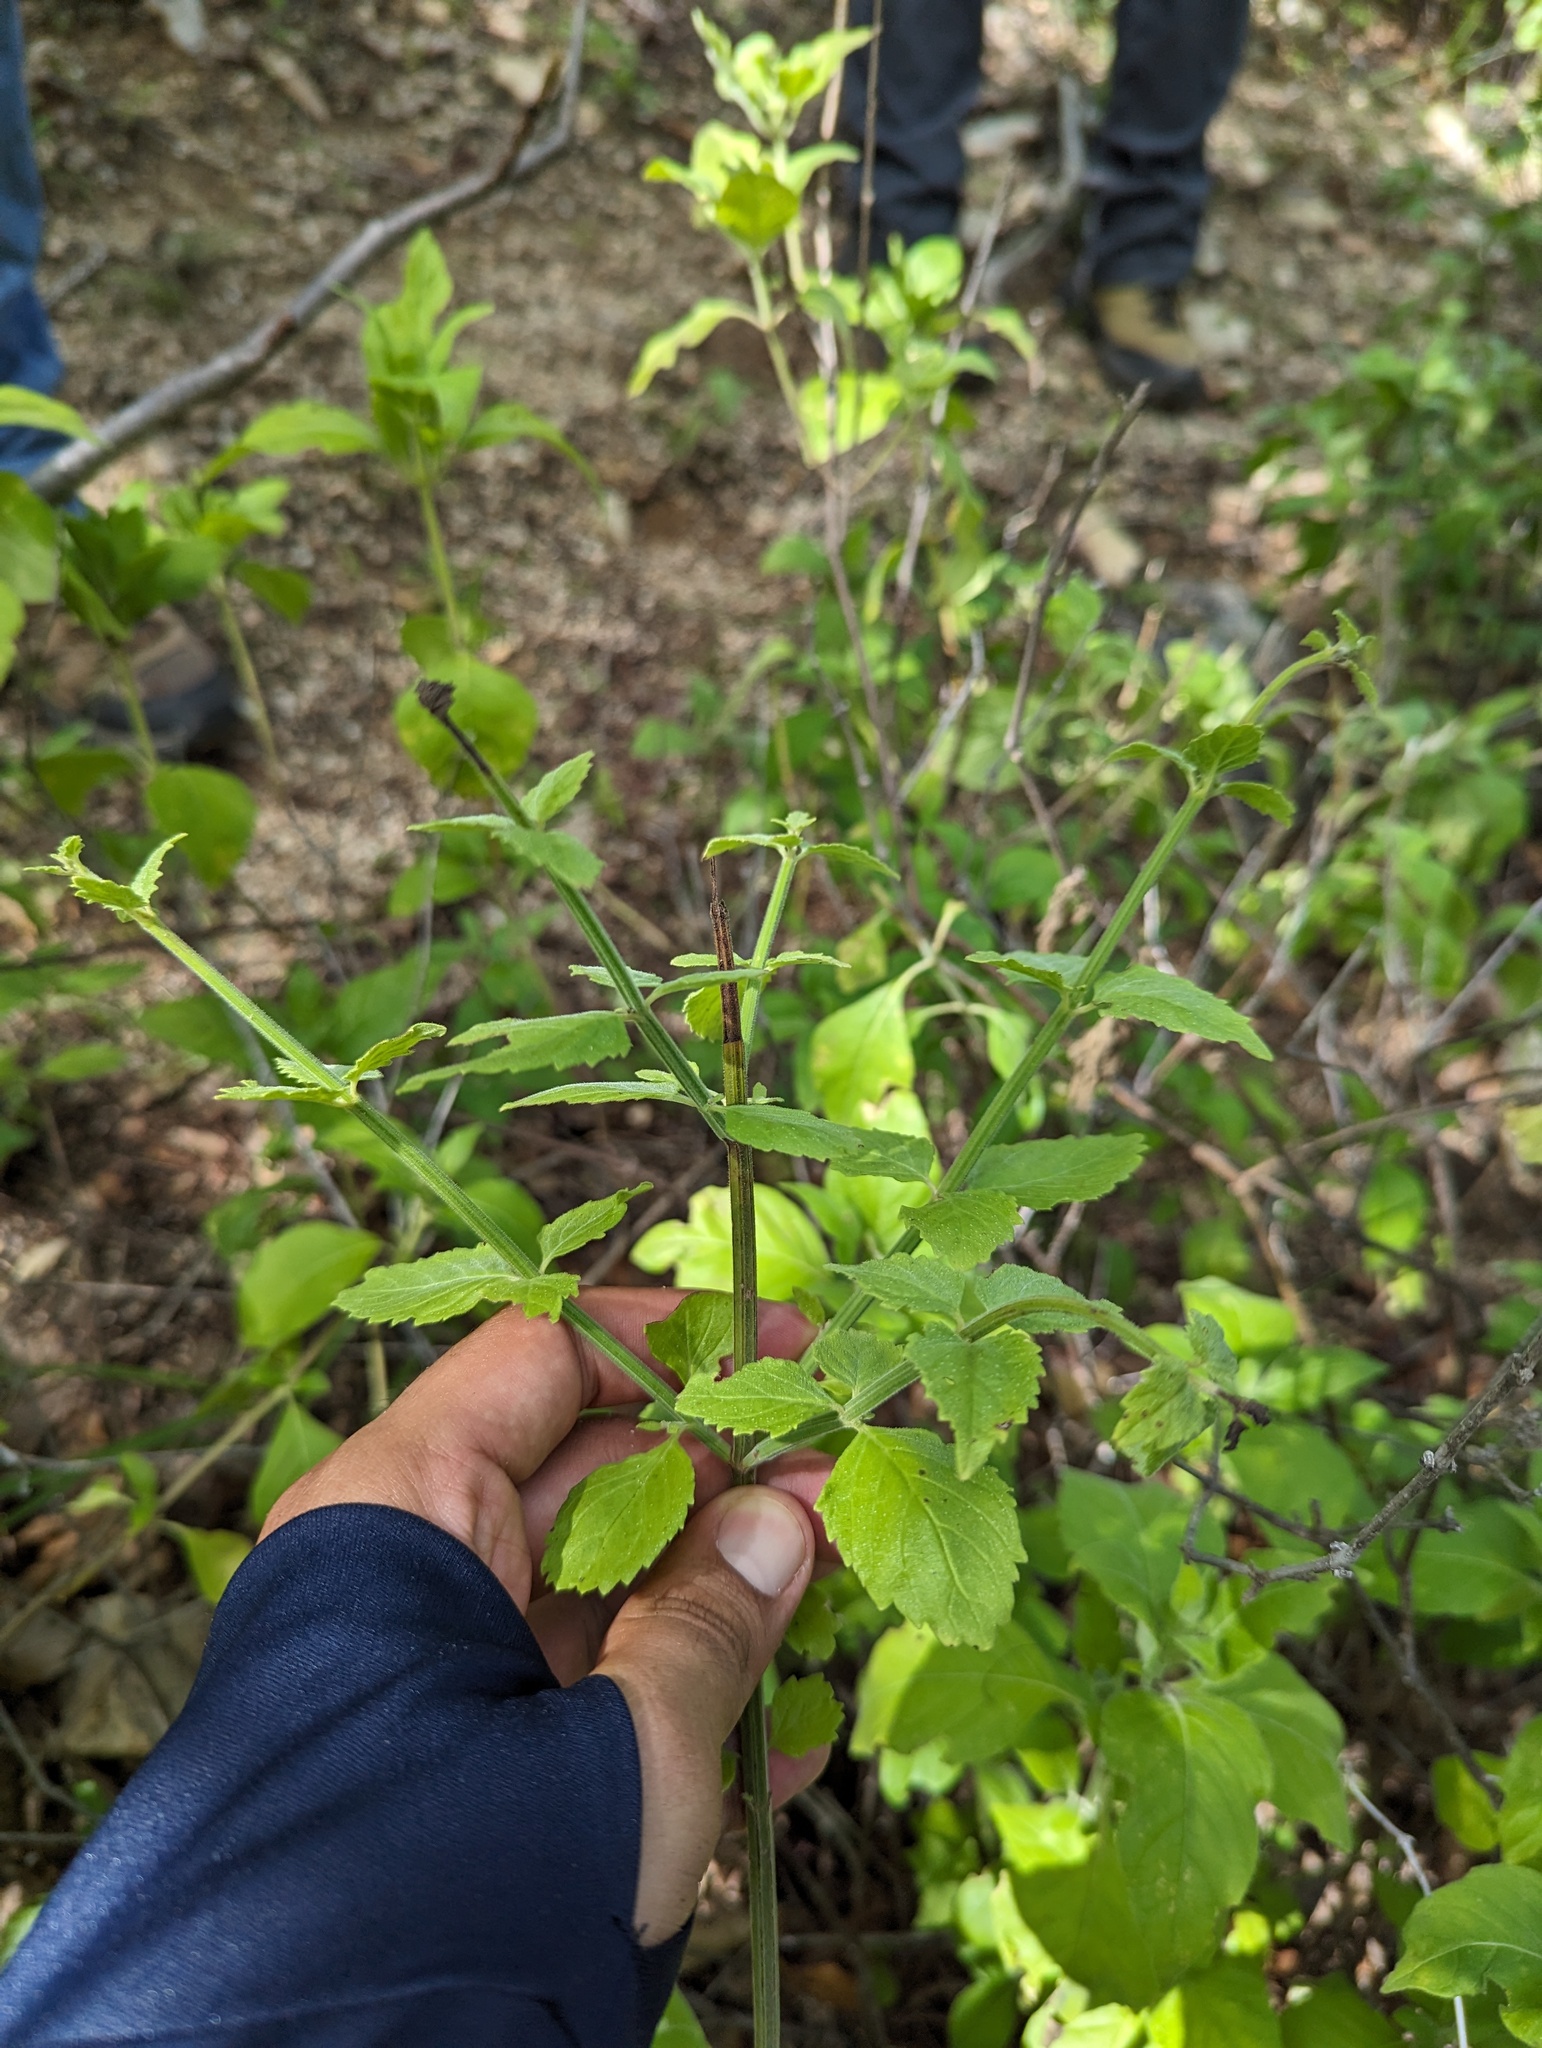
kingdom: Plantae
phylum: Tracheophyta
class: Magnoliopsida
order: Lamiales
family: Plantaginaceae
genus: Russelia
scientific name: Russelia retrorsa
